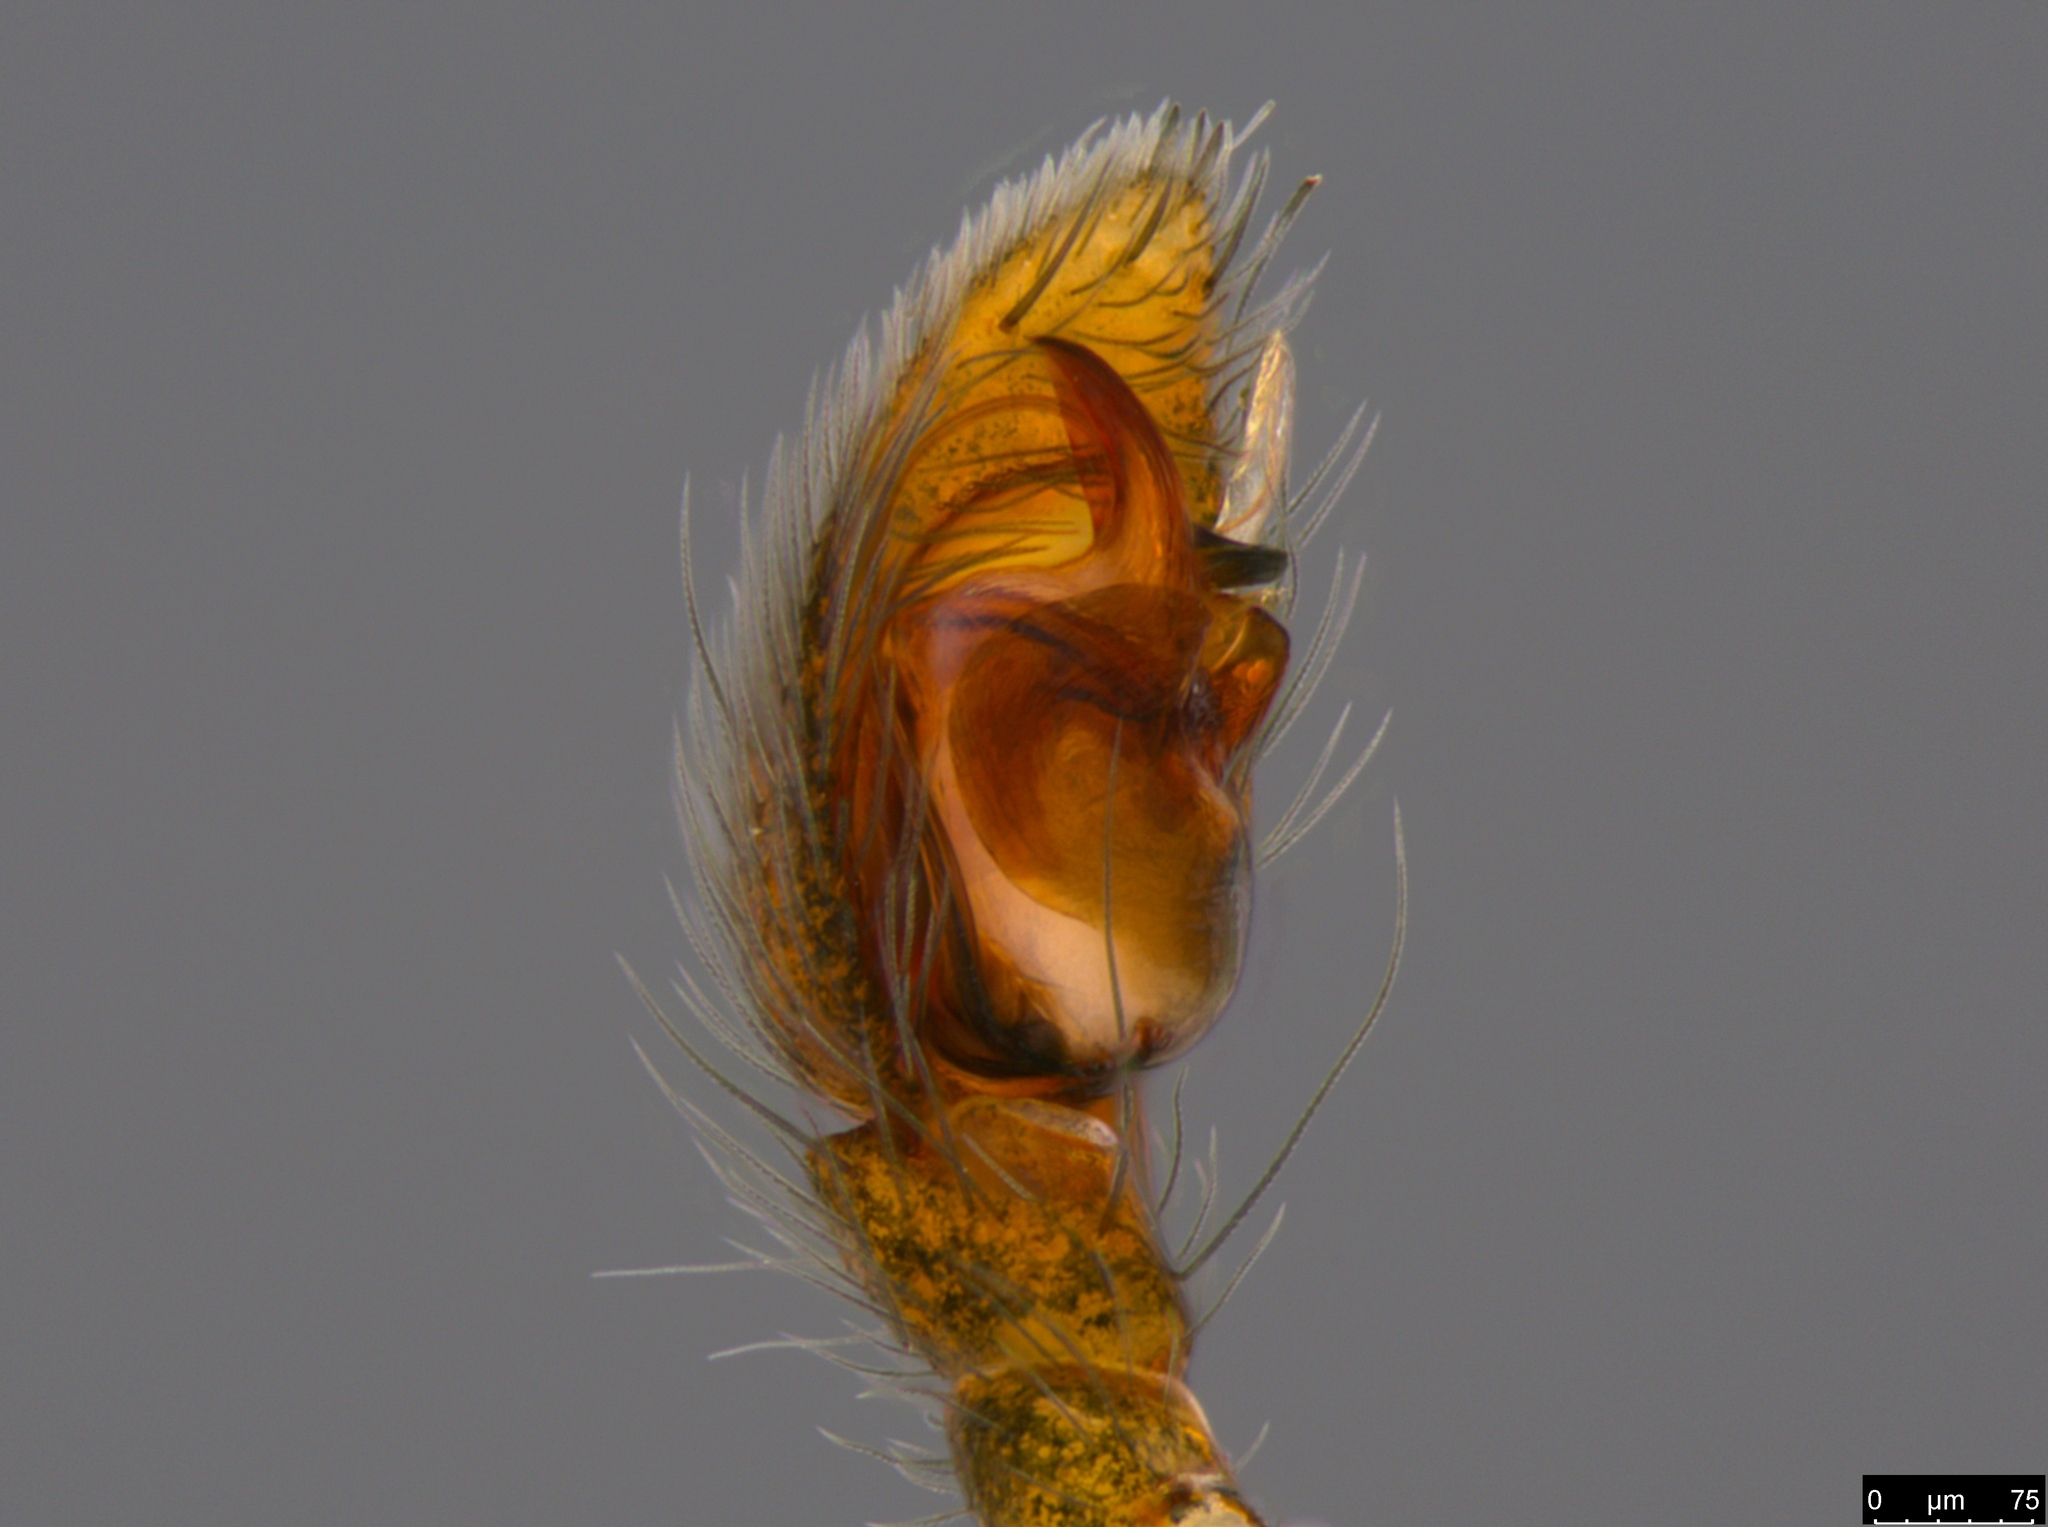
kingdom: Animalia
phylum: Arthropoda
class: Arachnida
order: Araneae
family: Lamponidae
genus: Queenvic
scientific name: Queenvic piccadilly
